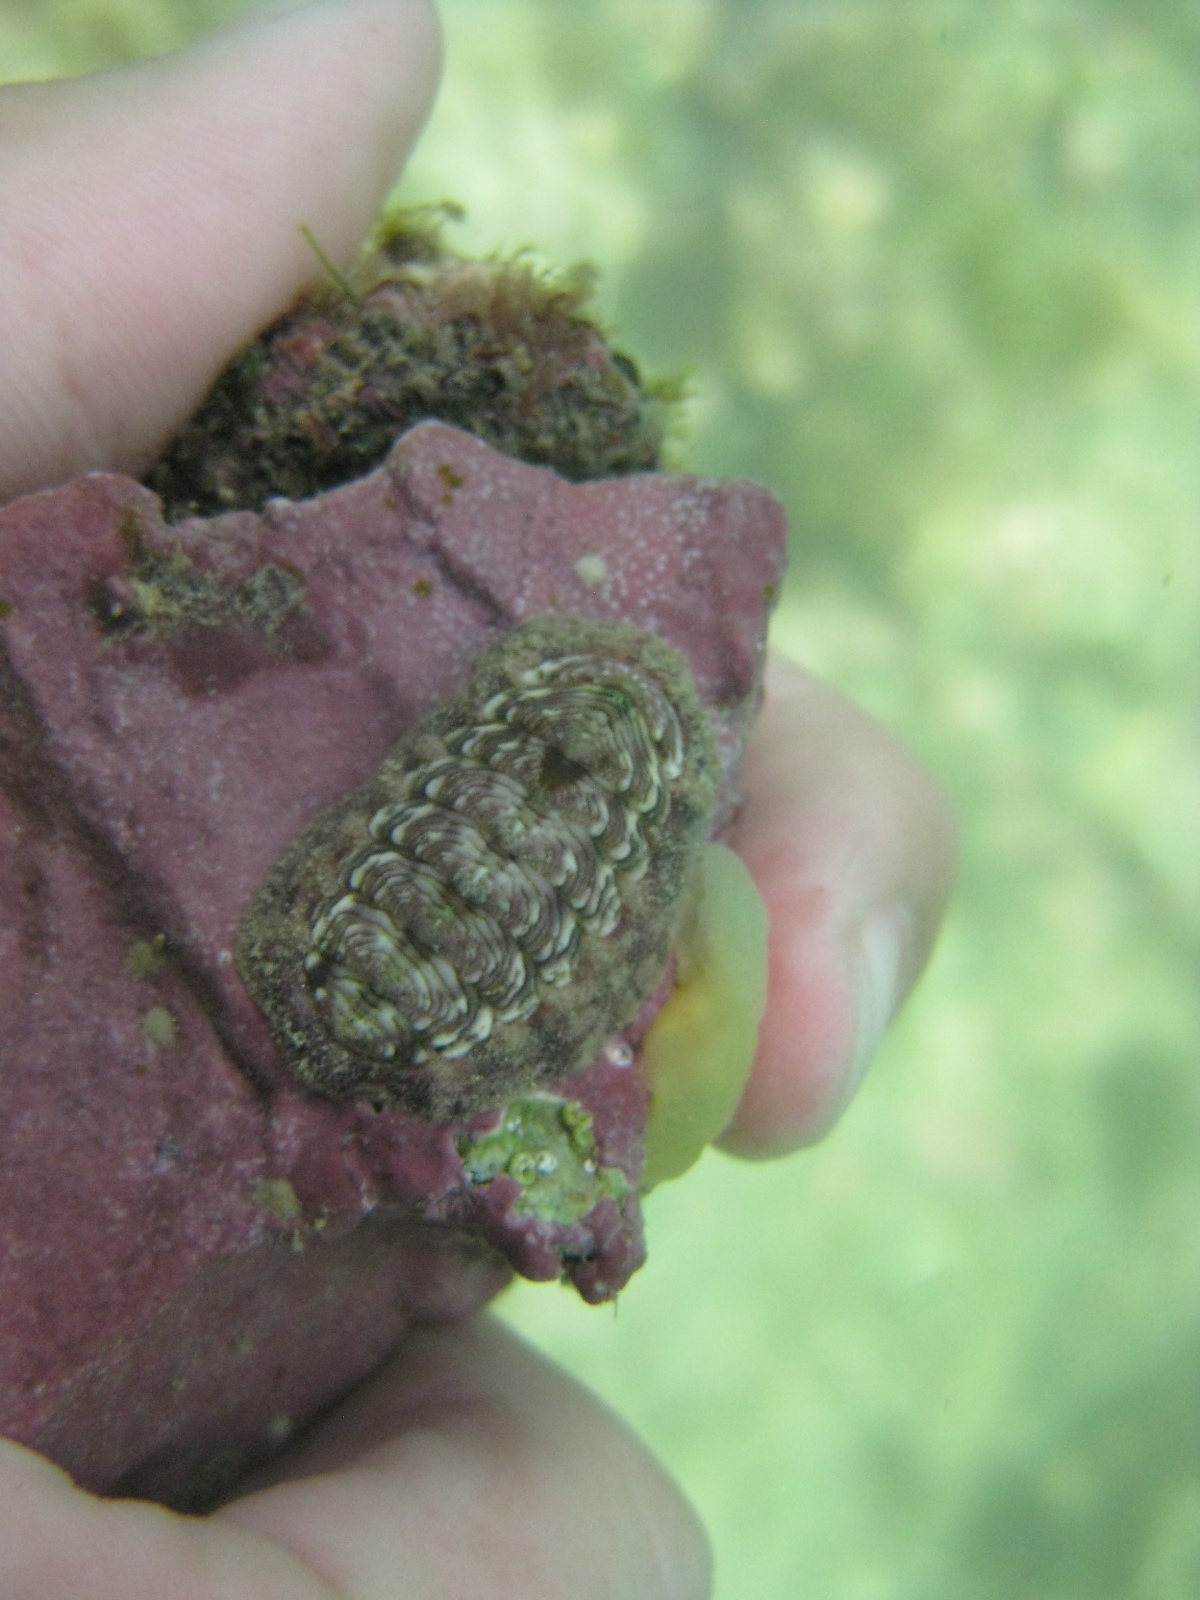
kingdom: Animalia
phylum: Mollusca
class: Polyplacophora
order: Chitonida
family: Chitonidae
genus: Onithochiton
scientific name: Onithochiton neglectus
